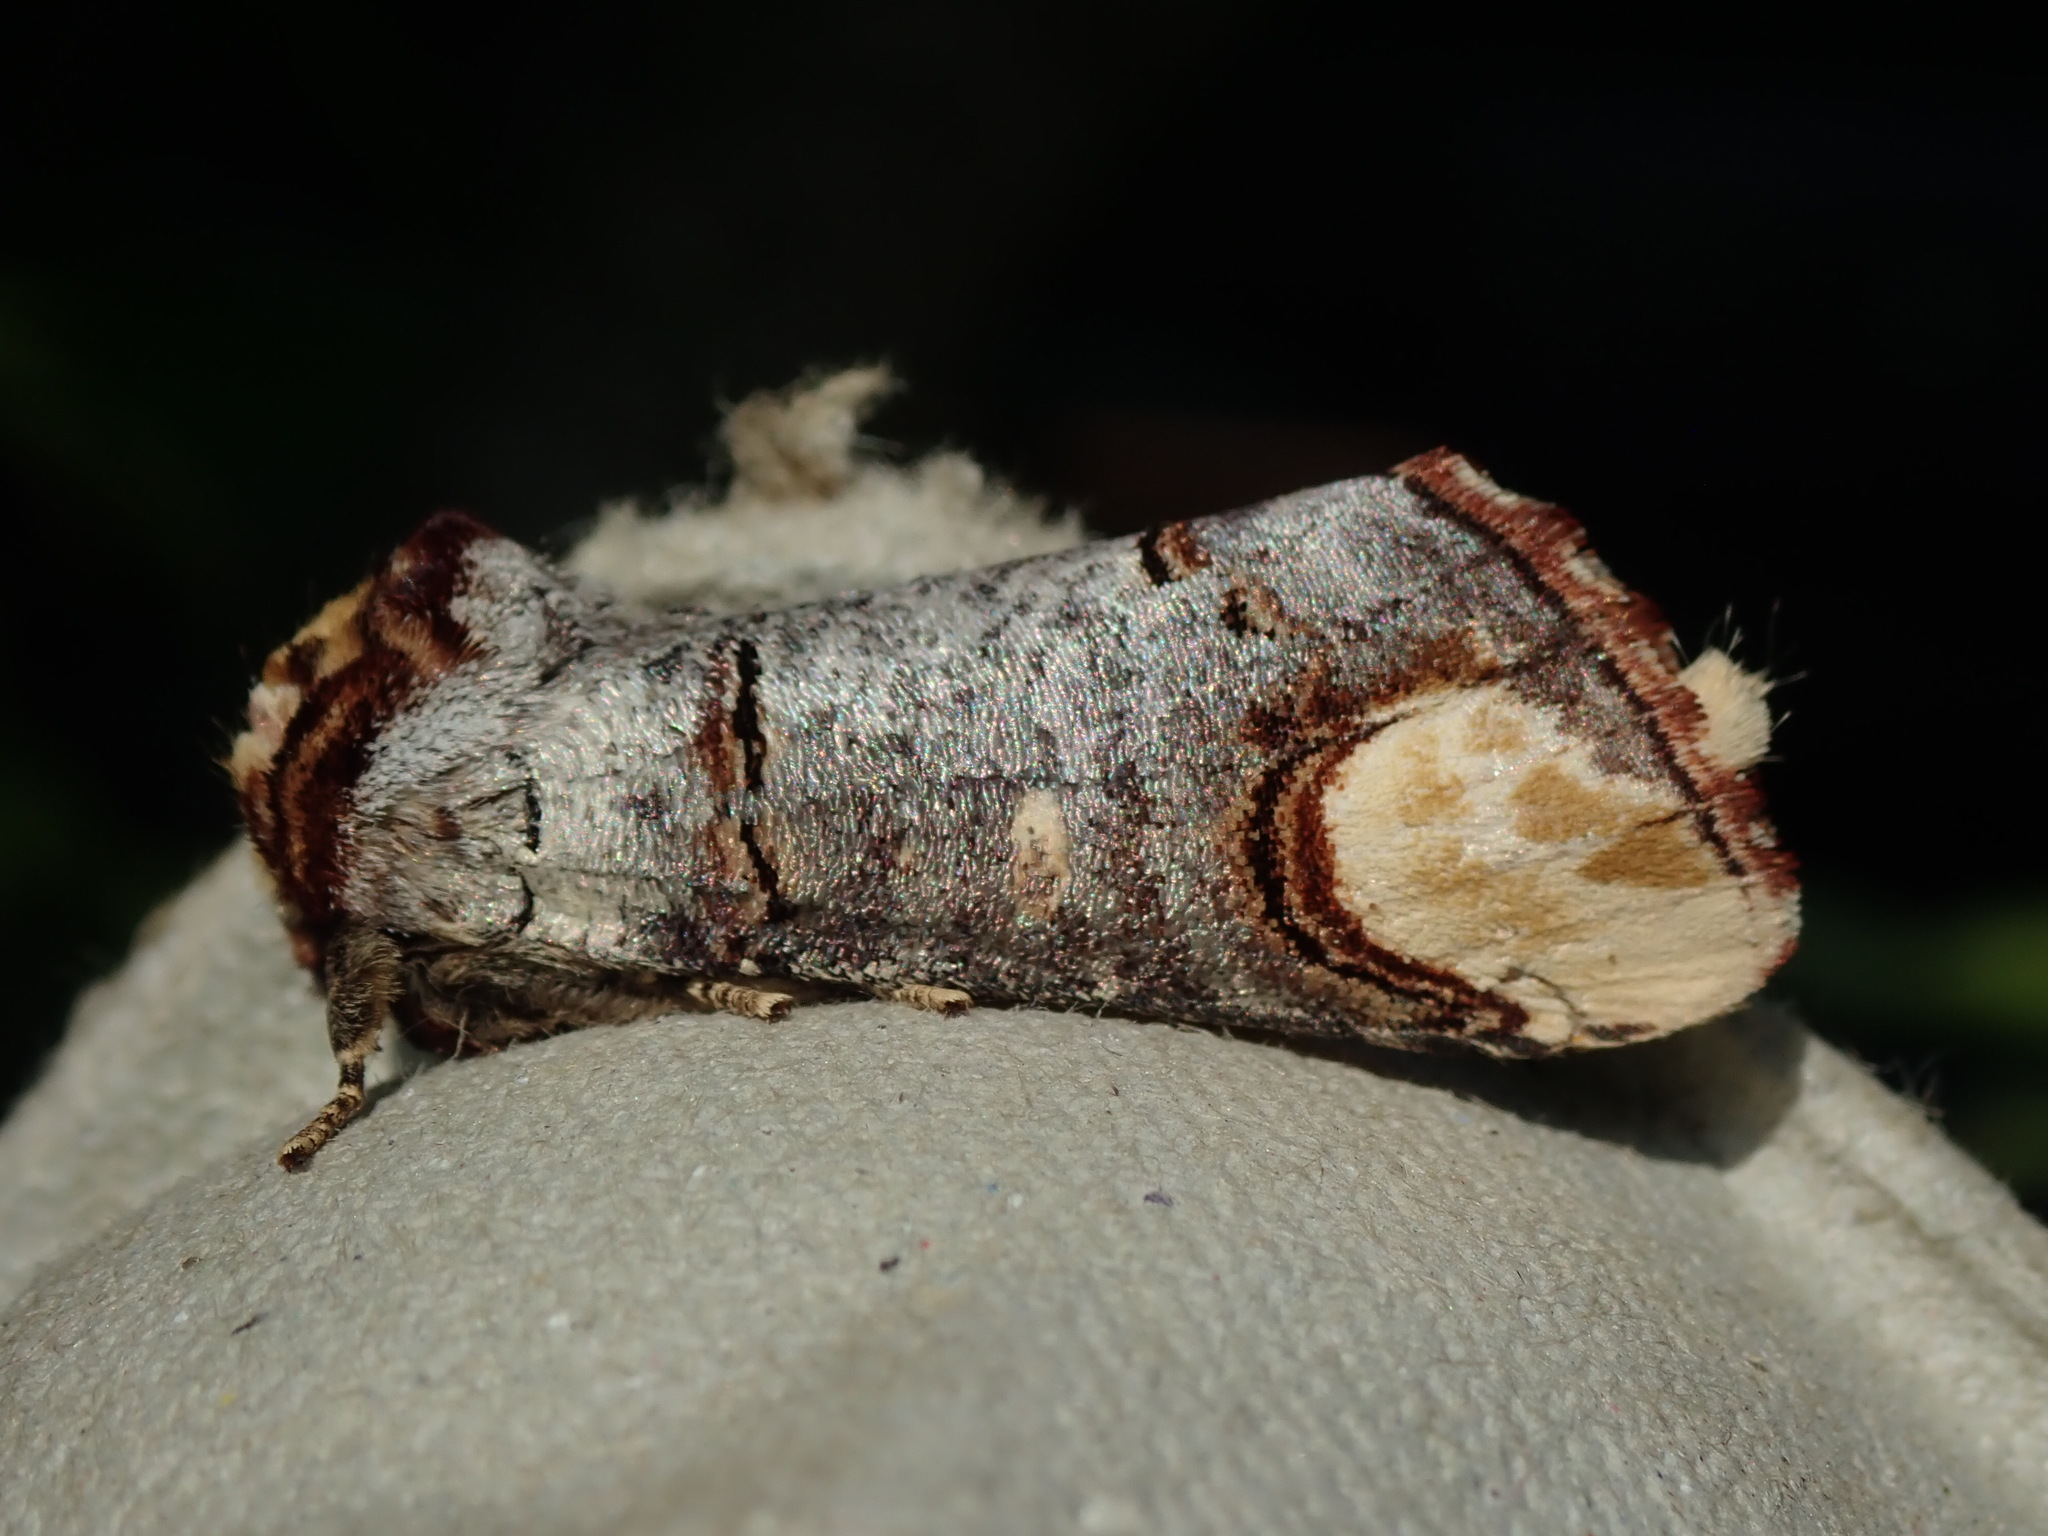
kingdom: Animalia
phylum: Arthropoda
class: Insecta
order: Lepidoptera
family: Notodontidae
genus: Phalera
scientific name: Phalera bucephala
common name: Buff-tip
